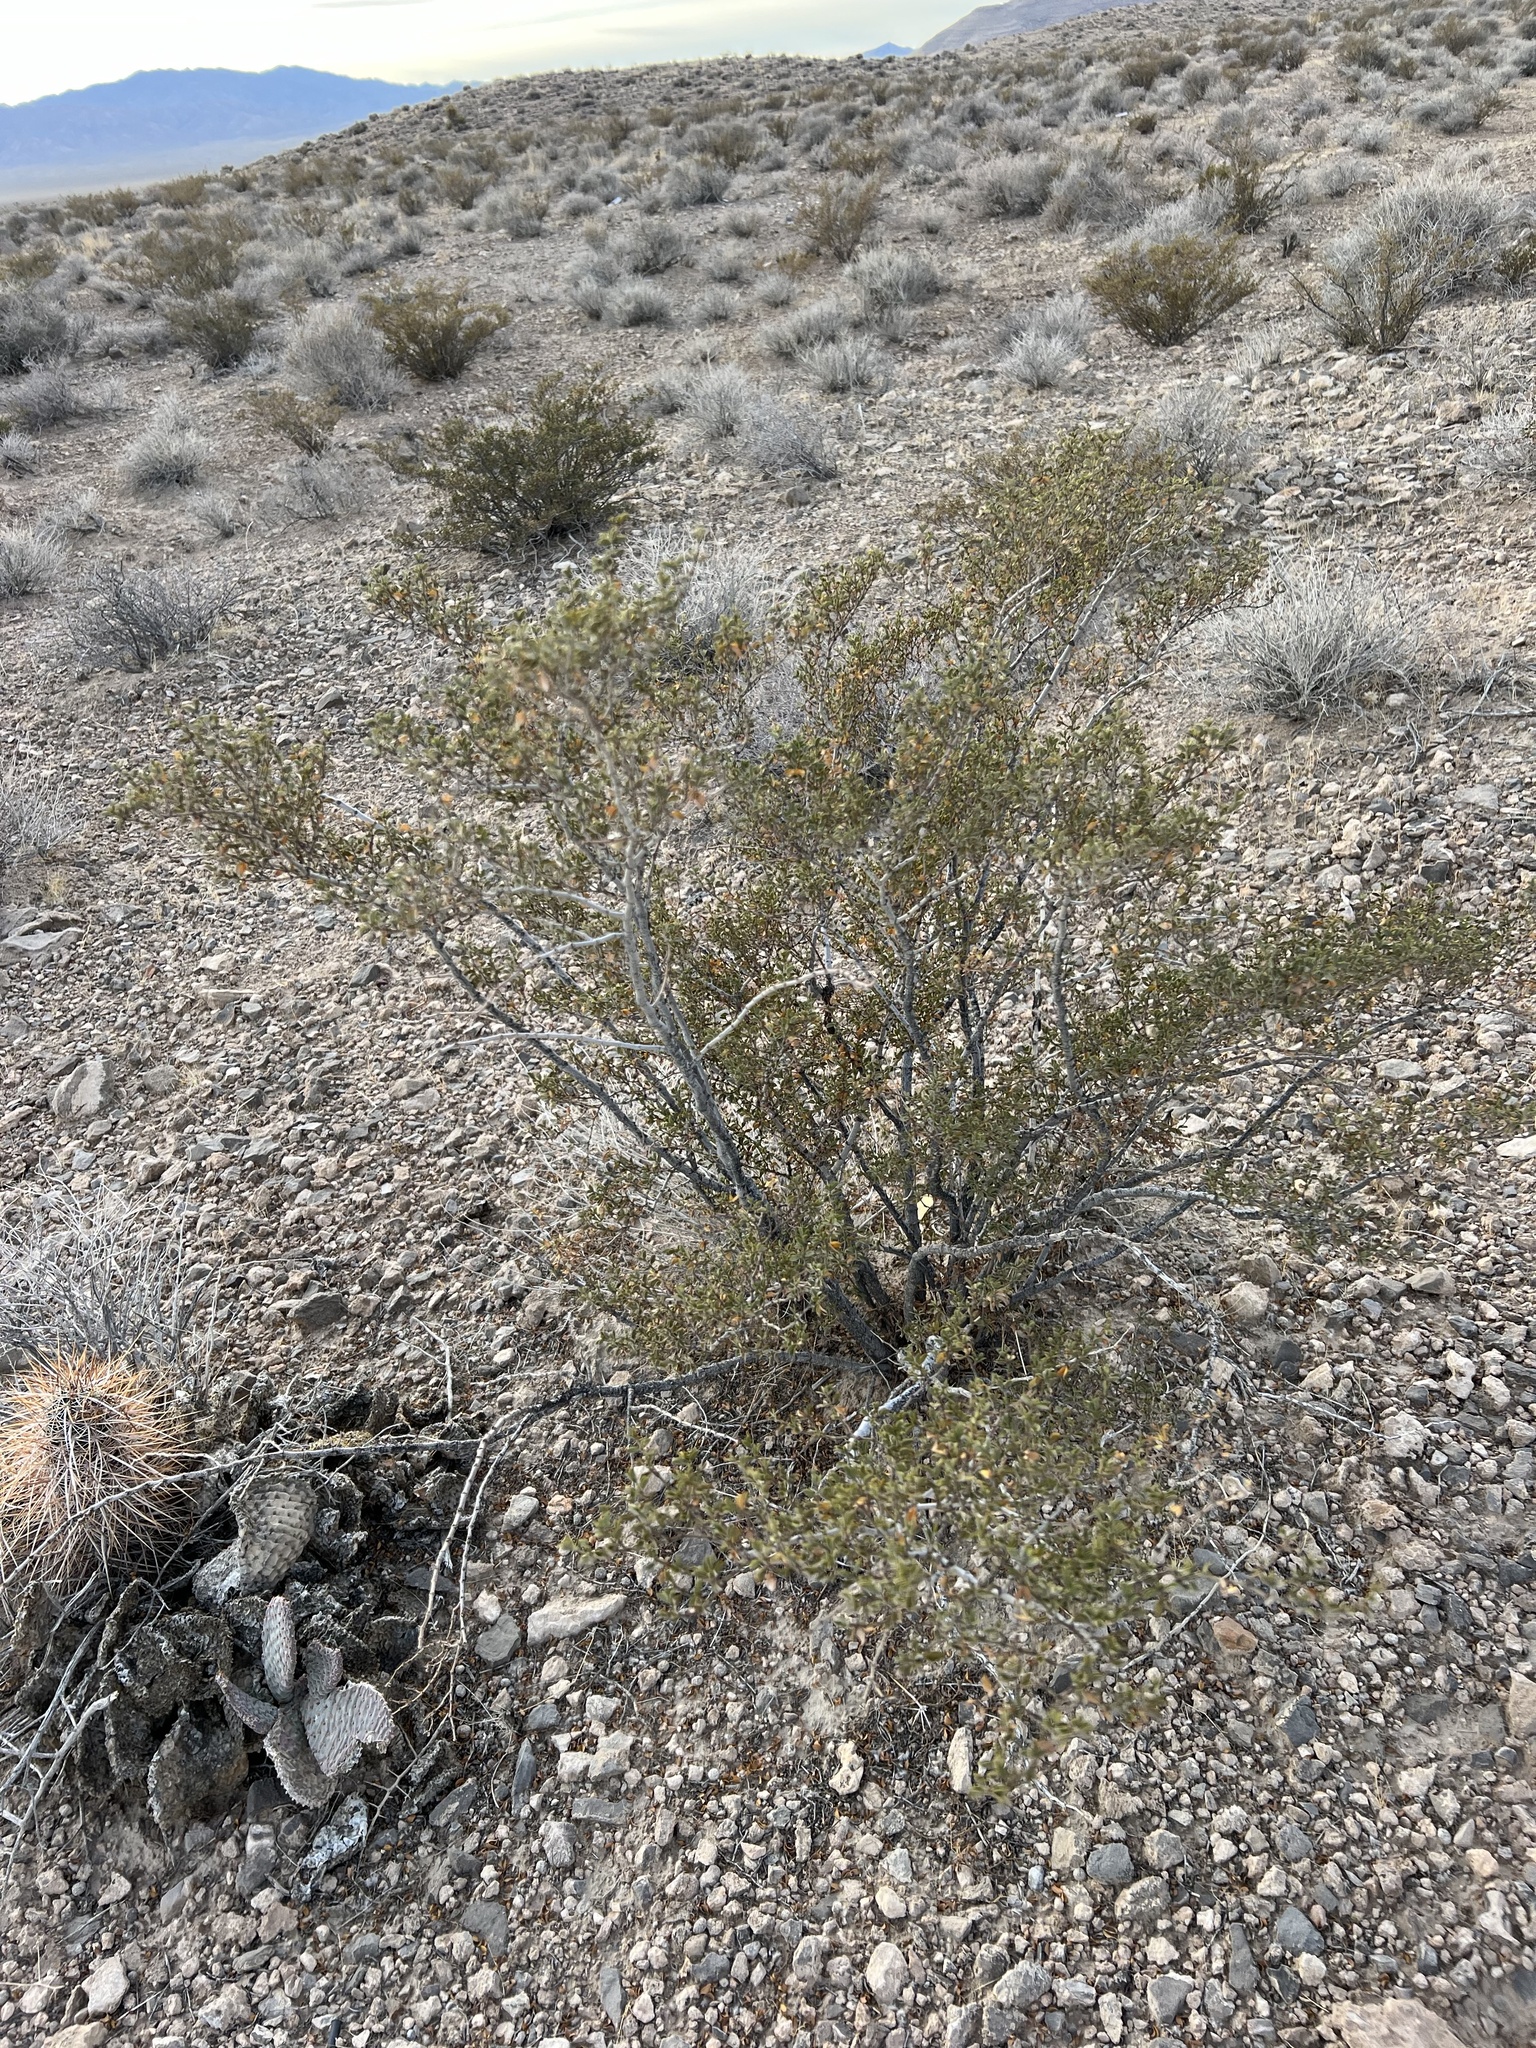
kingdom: Plantae
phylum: Tracheophyta
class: Magnoliopsida
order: Zygophyllales
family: Zygophyllaceae
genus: Larrea
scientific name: Larrea tridentata
